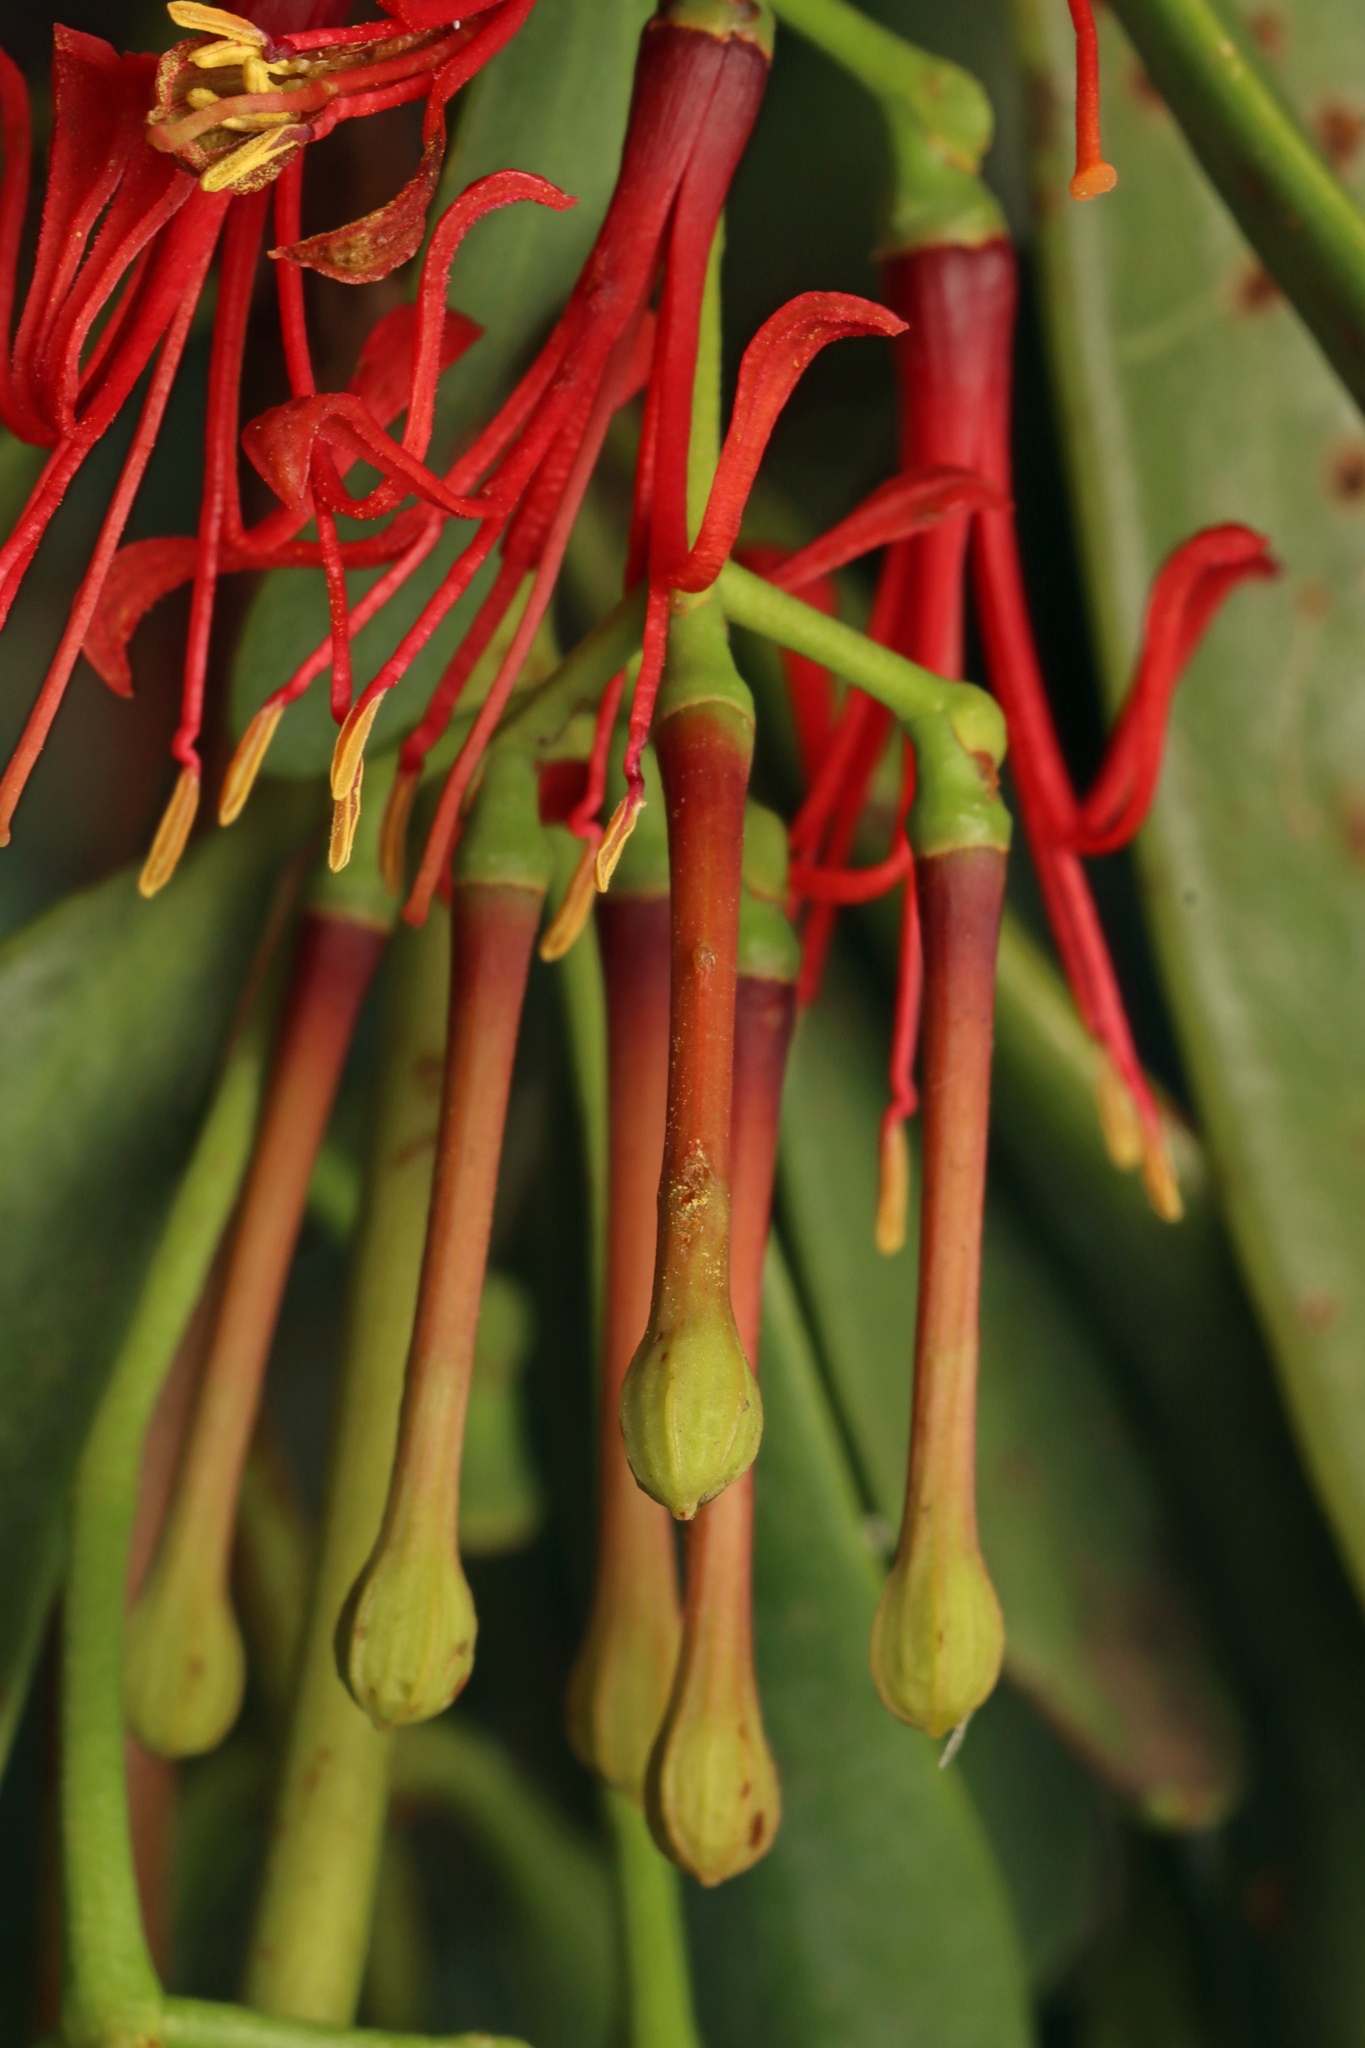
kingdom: Plantae
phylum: Tracheophyta
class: Magnoliopsida
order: Santalales
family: Loranthaceae
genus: Amyema
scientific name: Amyema miraculosa
